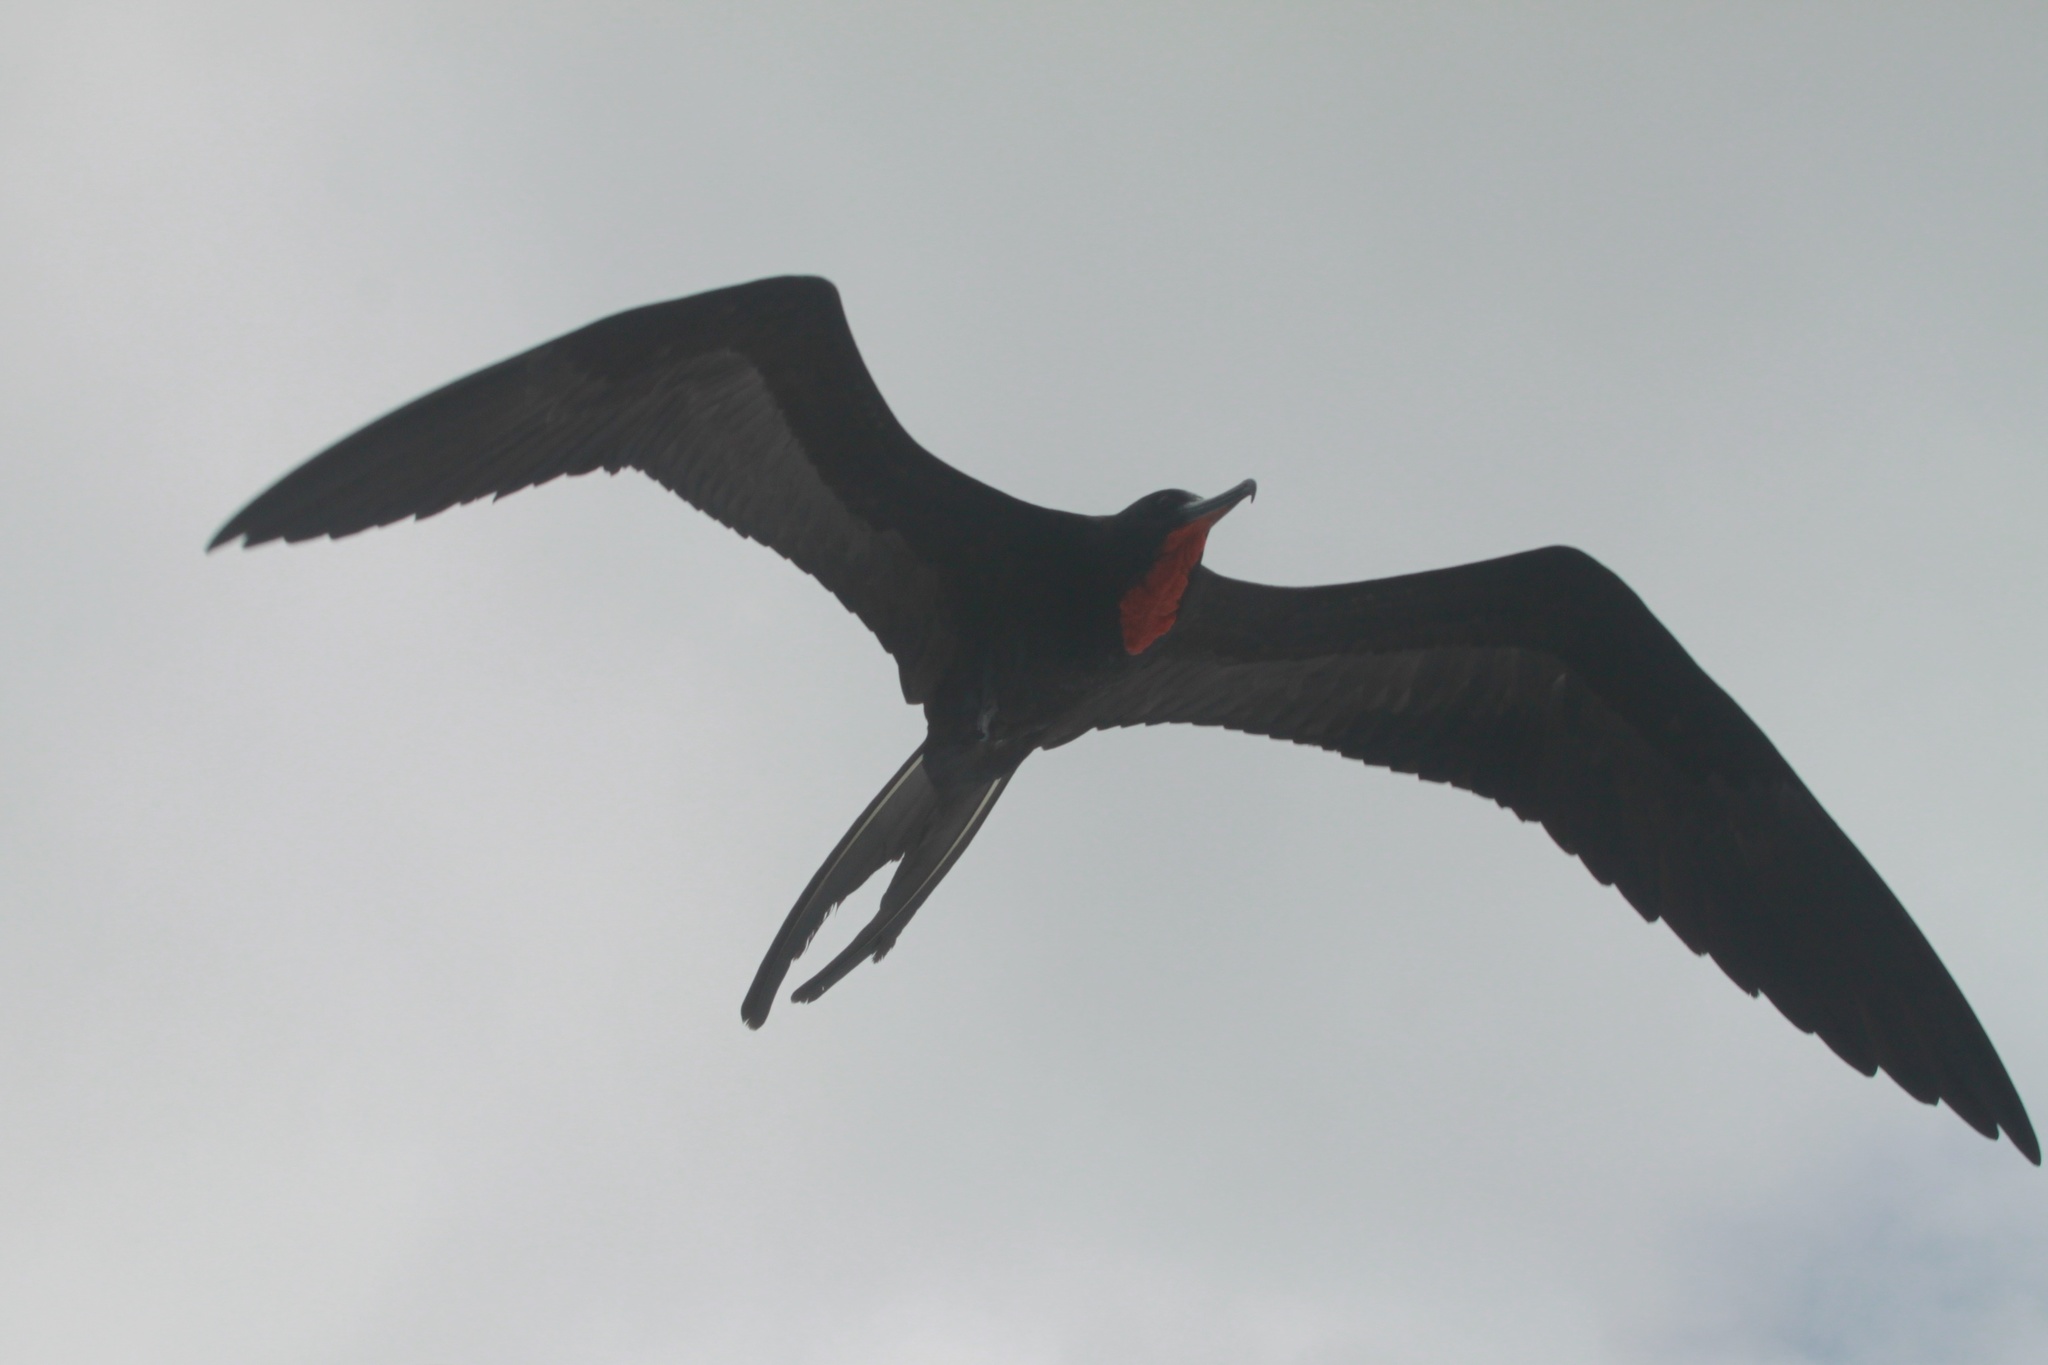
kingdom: Animalia
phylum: Chordata
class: Aves
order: Suliformes
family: Fregatidae
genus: Fregata
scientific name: Fregata
